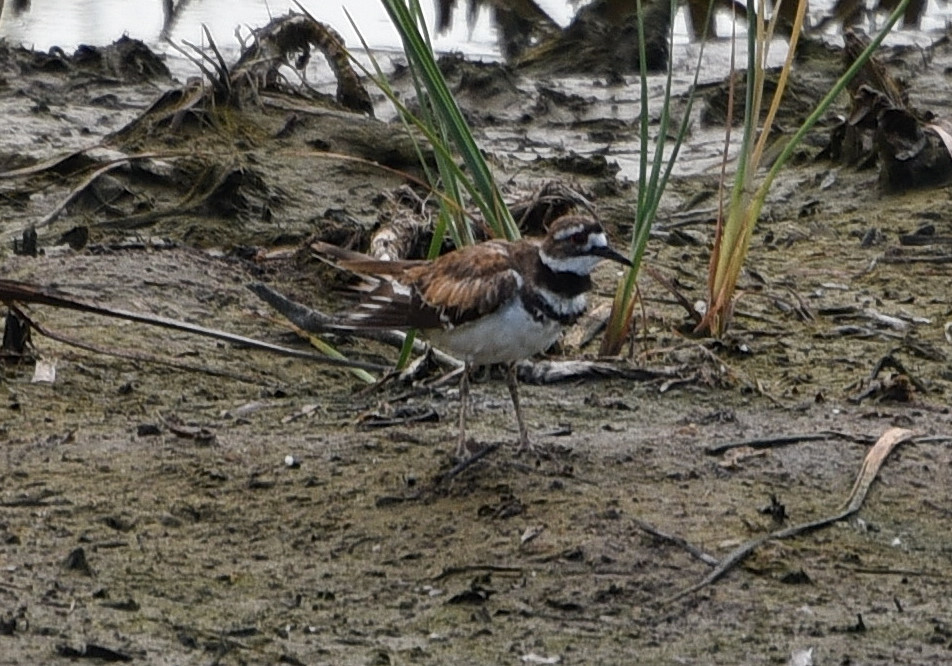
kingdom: Animalia
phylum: Chordata
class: Aves
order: Charadriiformes
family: Charadriidae
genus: Charadrius
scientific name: Charadrius vociferus
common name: Killdeer
